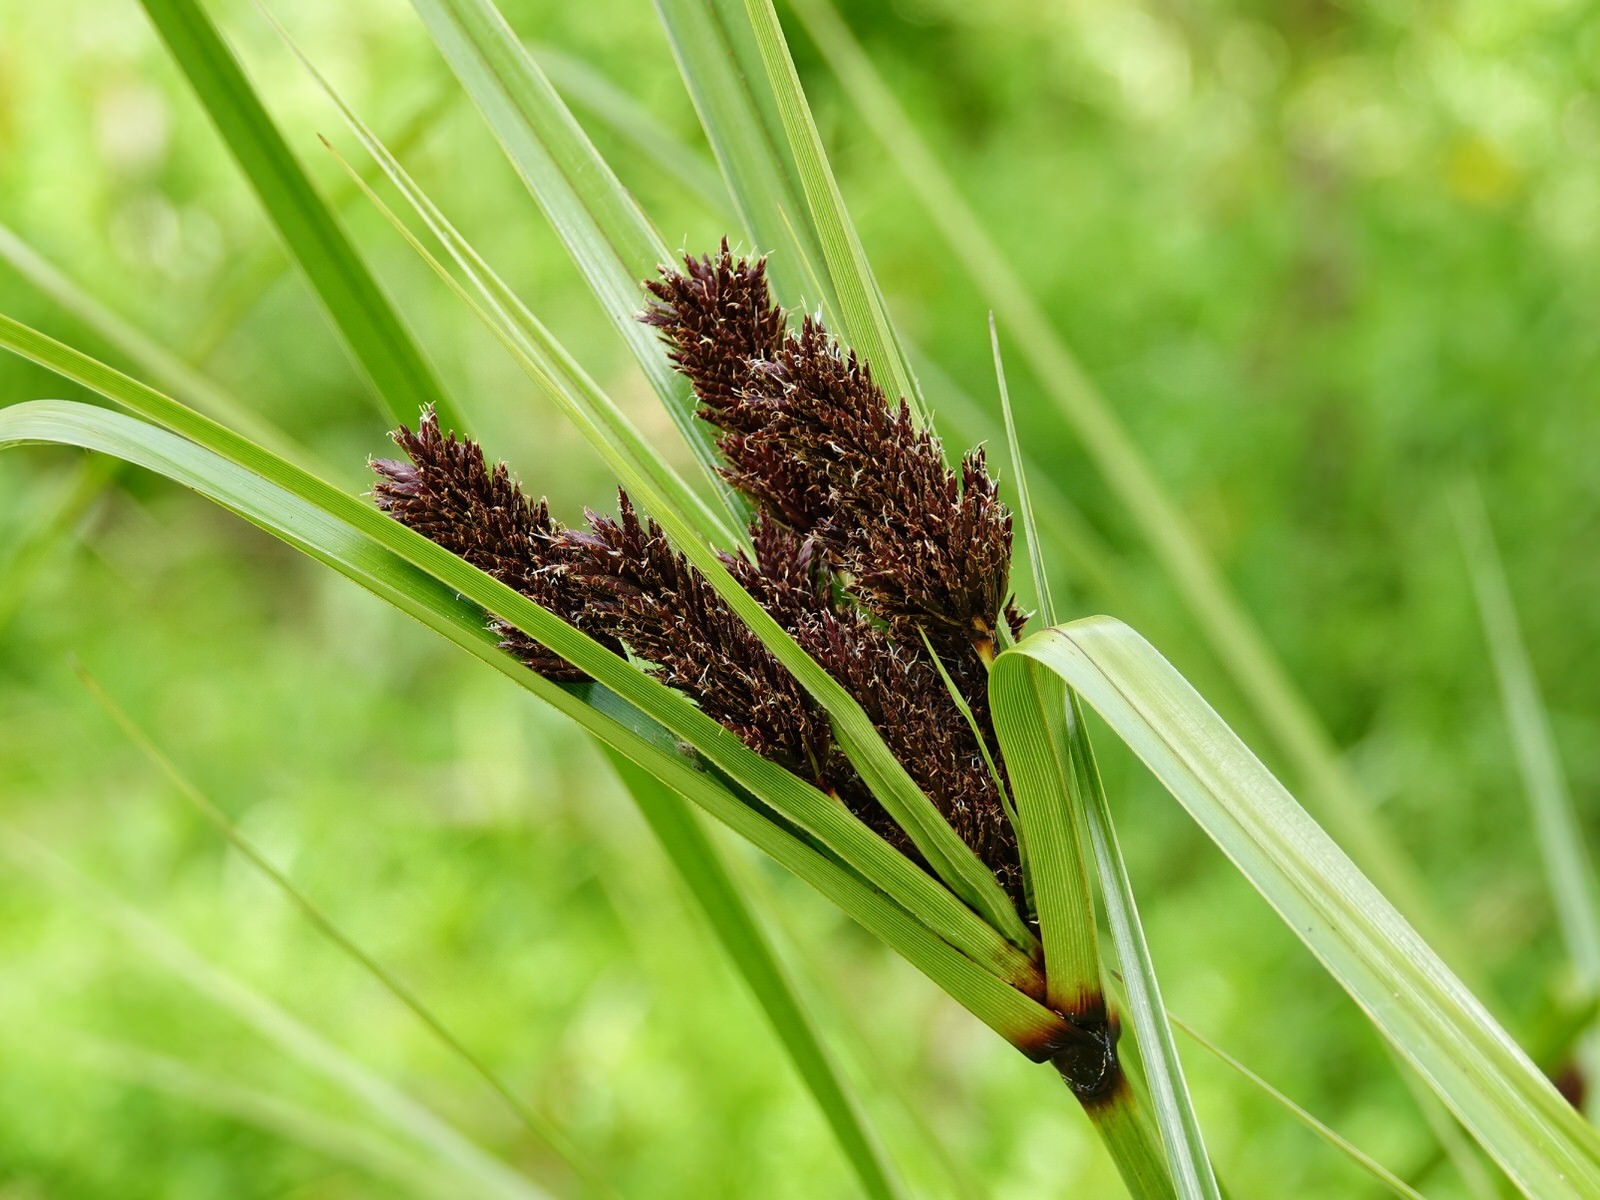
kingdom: Plantae
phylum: Tracheophyta
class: Liliopsida
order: Poales
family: Cyperaceae
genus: Cyperus
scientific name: Cyperus ustulatus
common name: Giant umbrella-sedge
